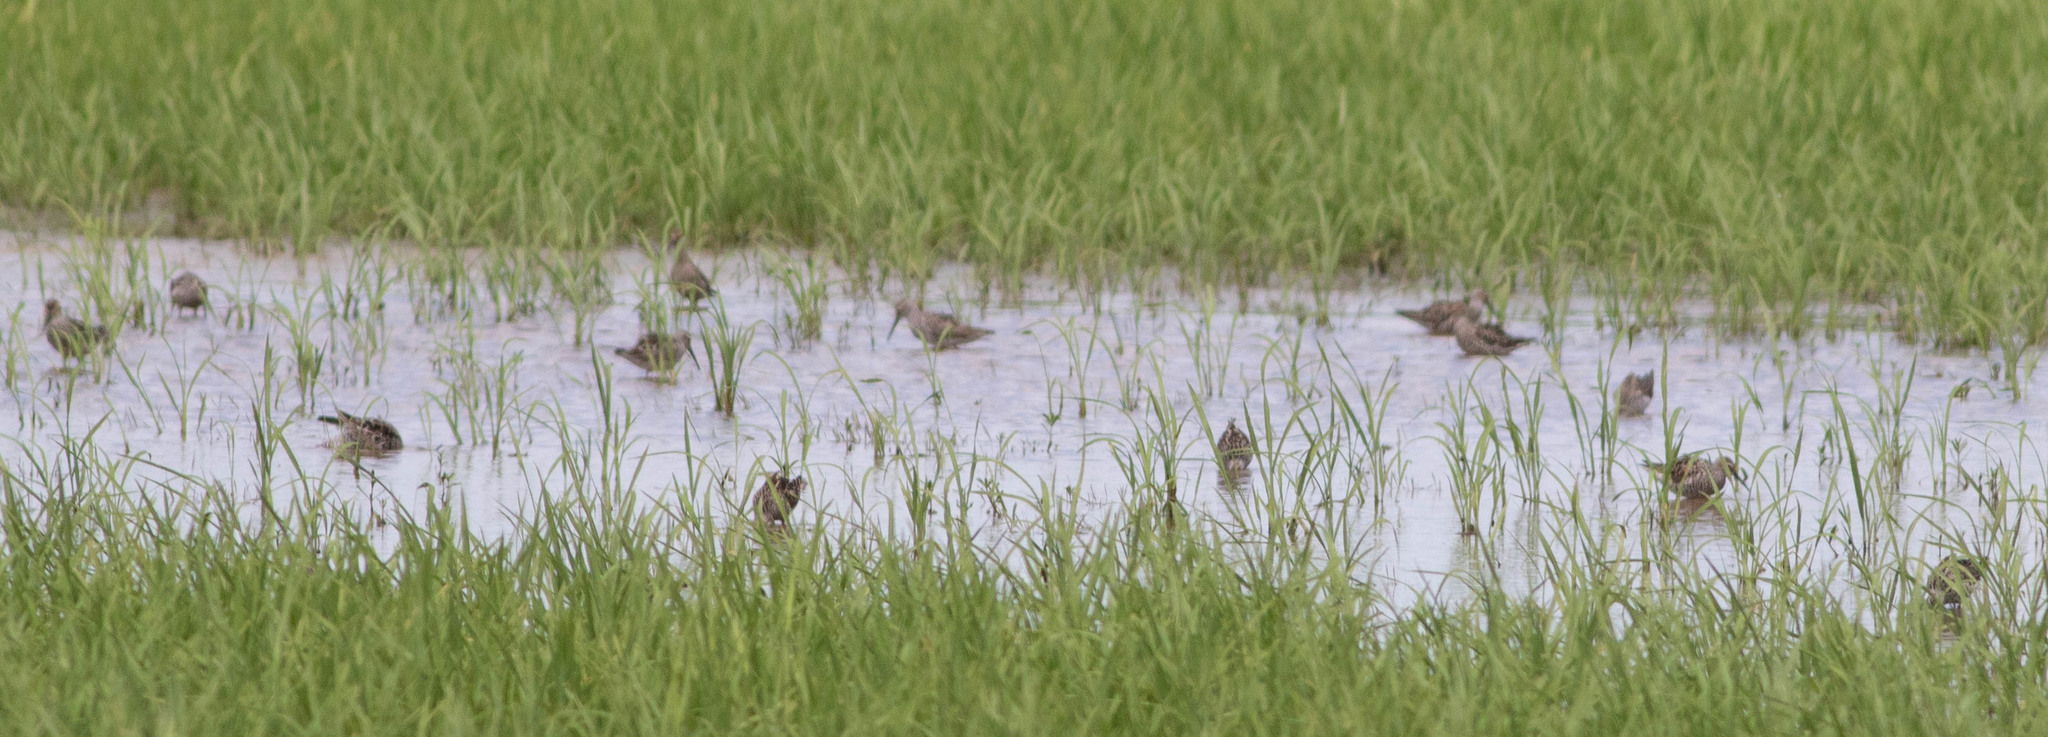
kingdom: Animalia
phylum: Chordata
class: Aves
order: Charadriiformes
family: Scolopacidae
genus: Calidris
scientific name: Calidris himantopus
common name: Stilt sandpiper
